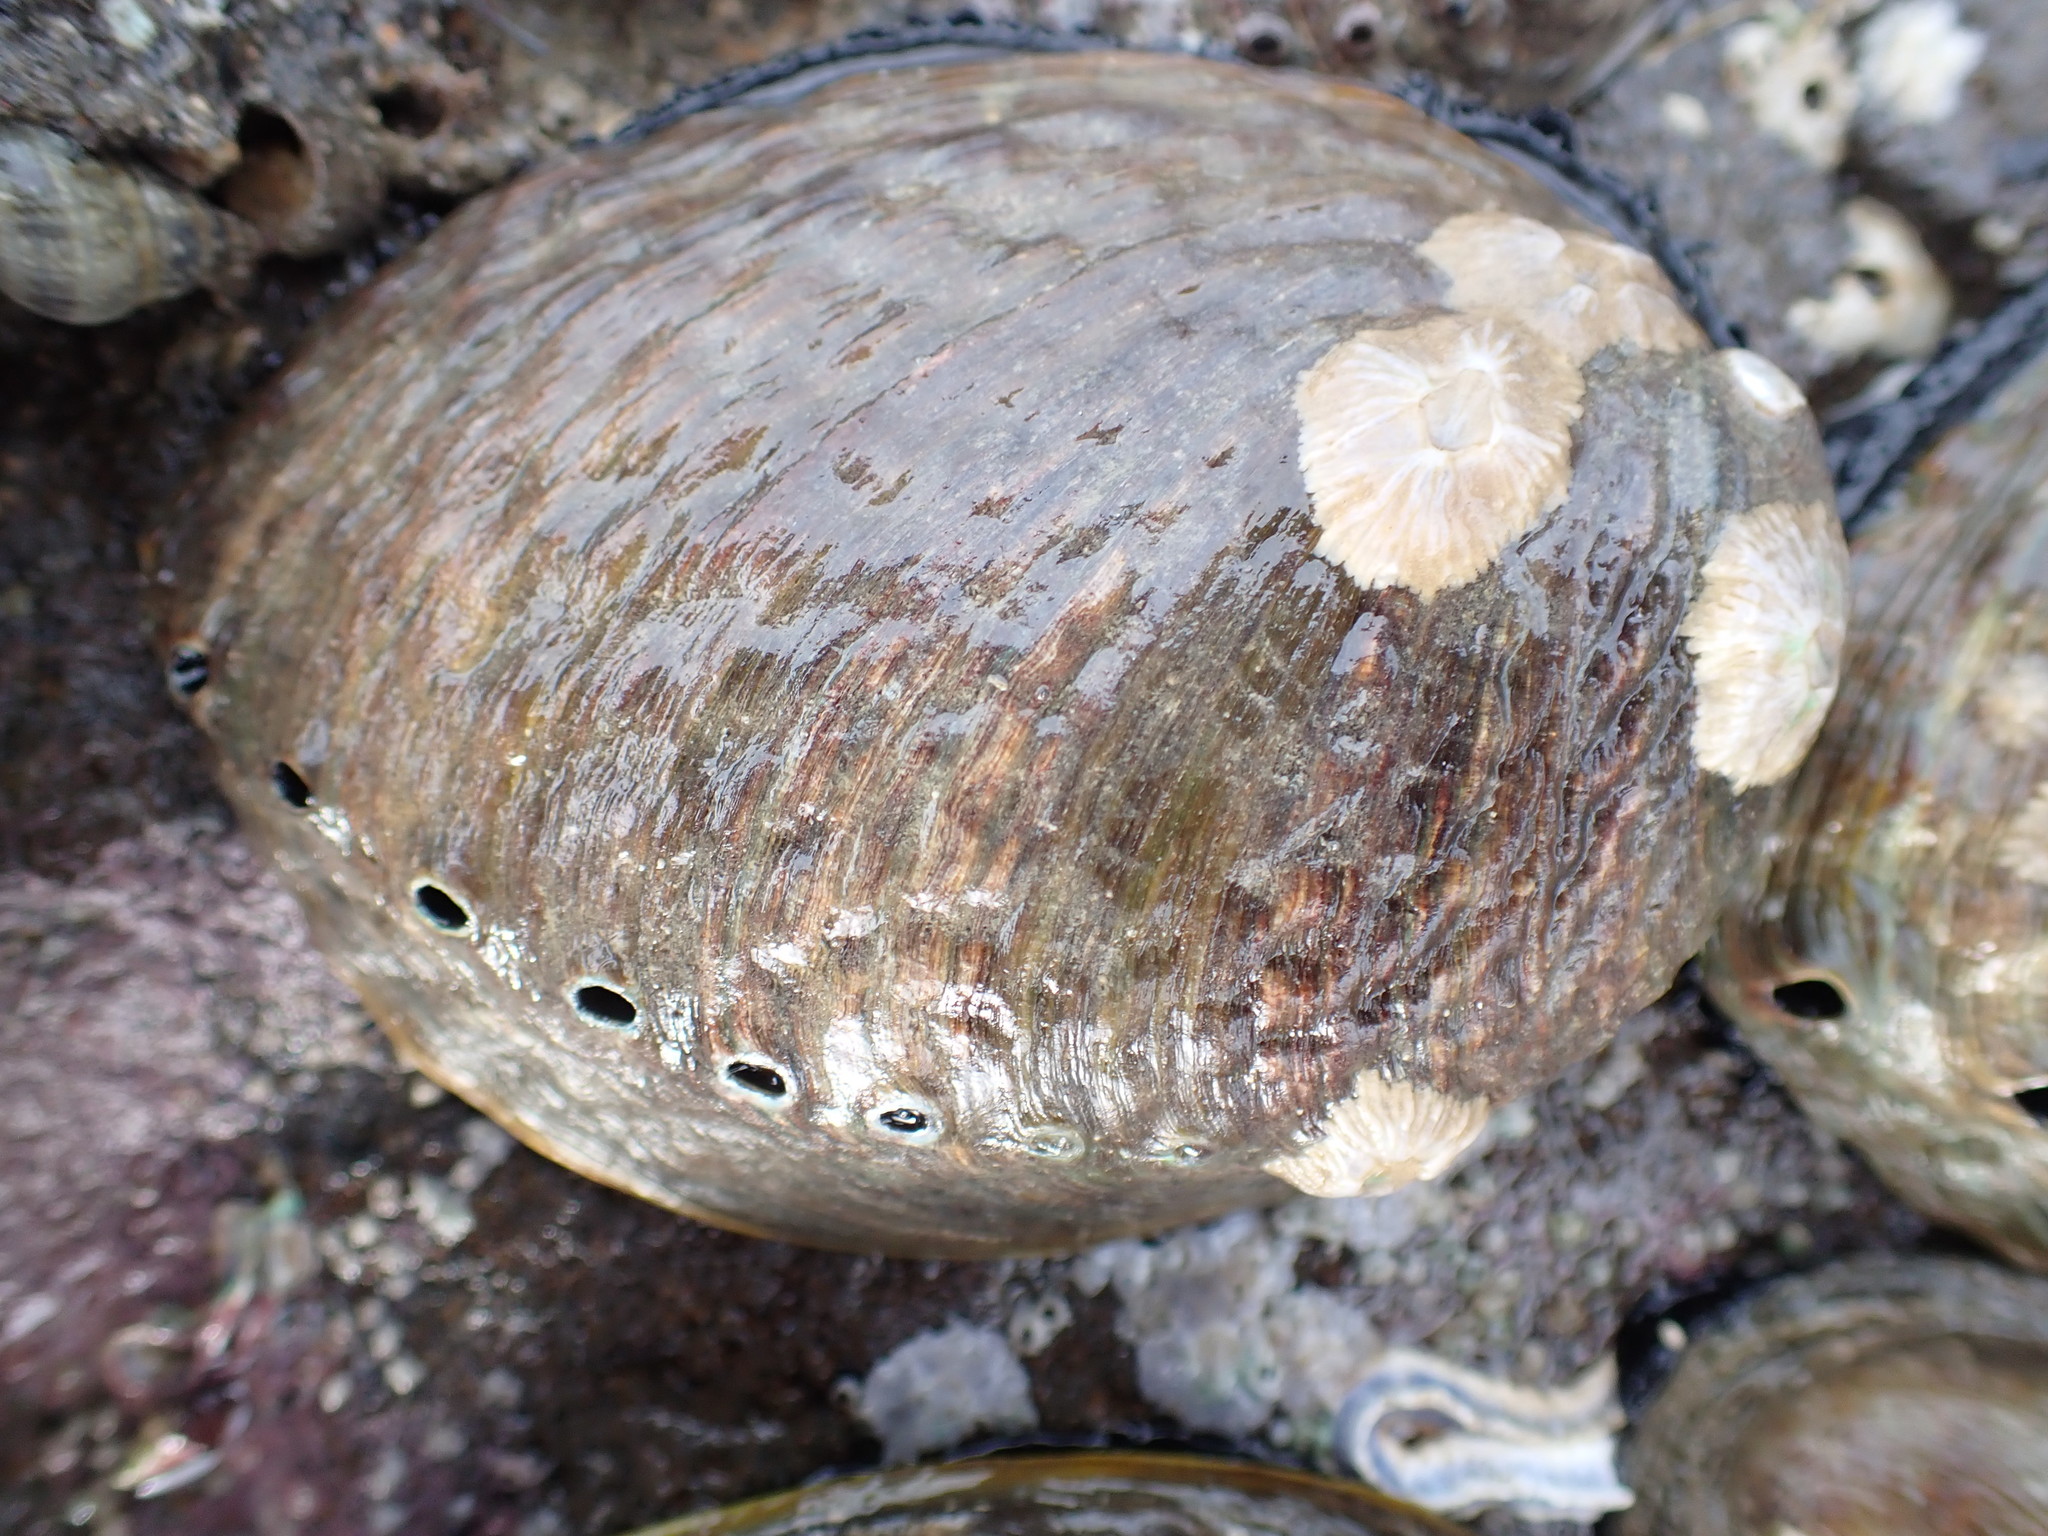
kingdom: Animalia
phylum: Arthropoda
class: Maxillopoda
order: Sessilia
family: Tetraclitidae
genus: Tetraclitella
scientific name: Tetraclitella depressa
